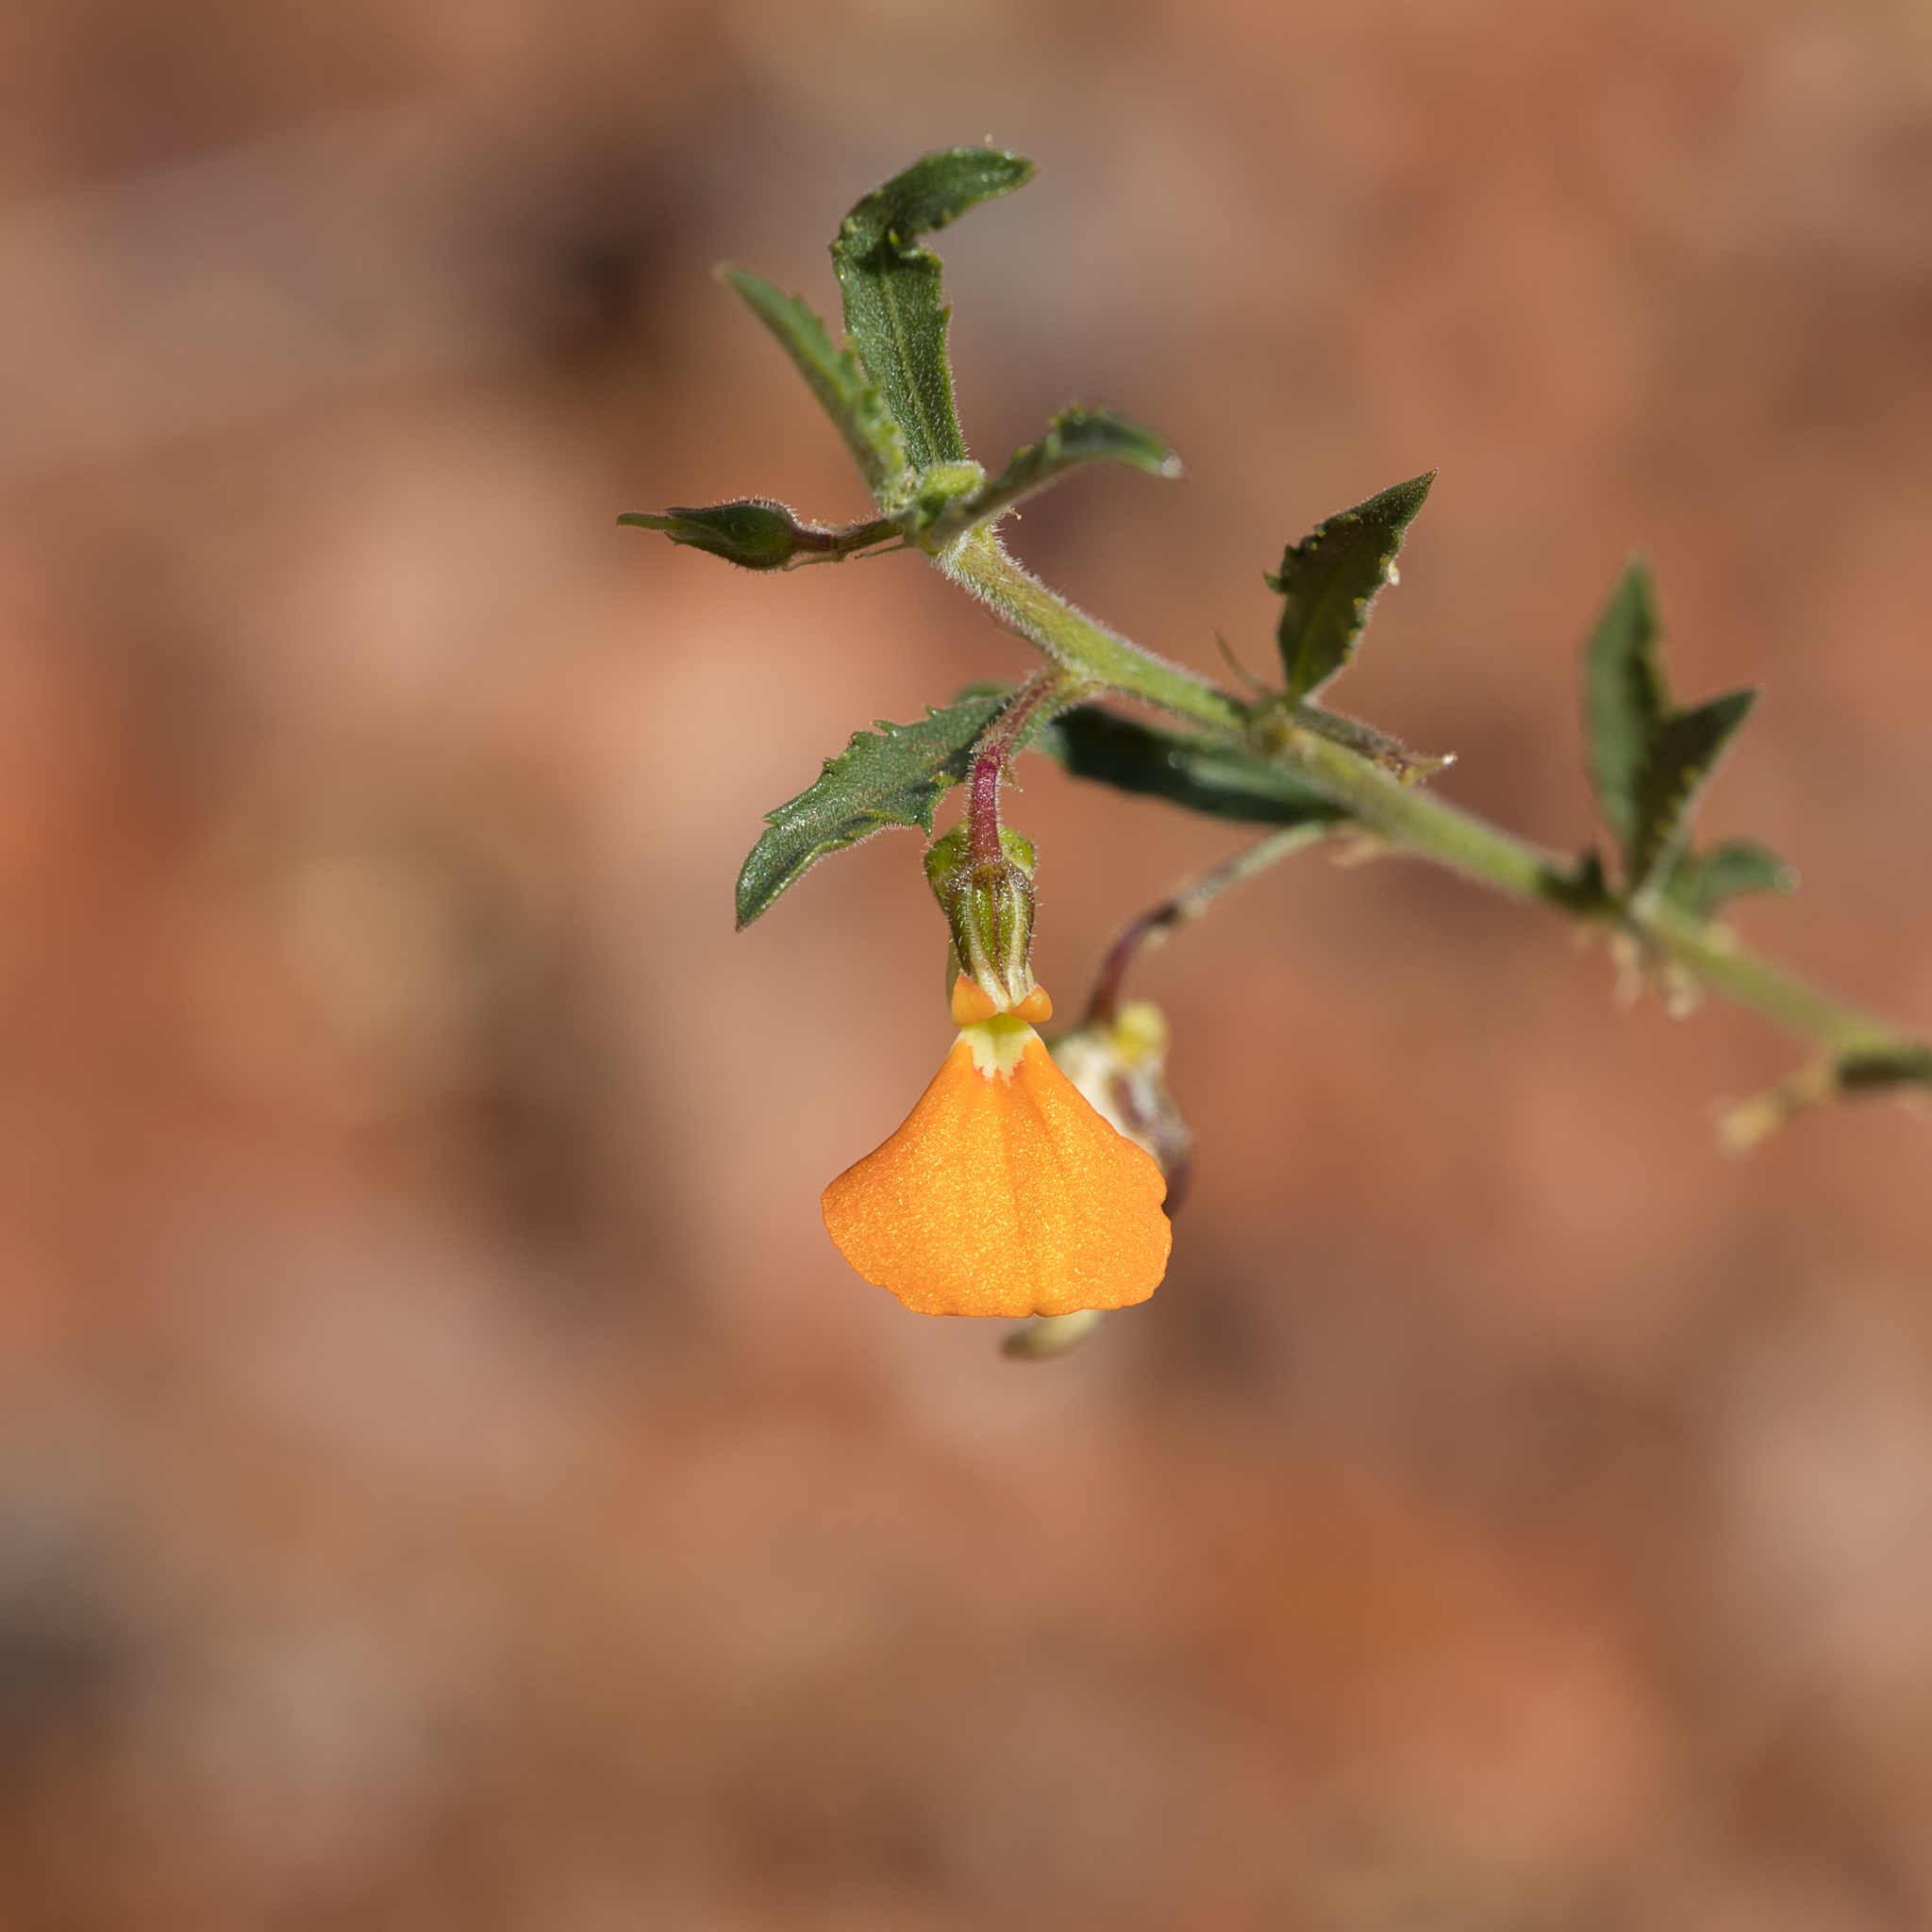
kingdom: Plantae
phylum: Tracheophyta
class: Magnoliopsida
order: Malpighiales
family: Violaceae
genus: Pigea
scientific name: Pigea aurantiaca
